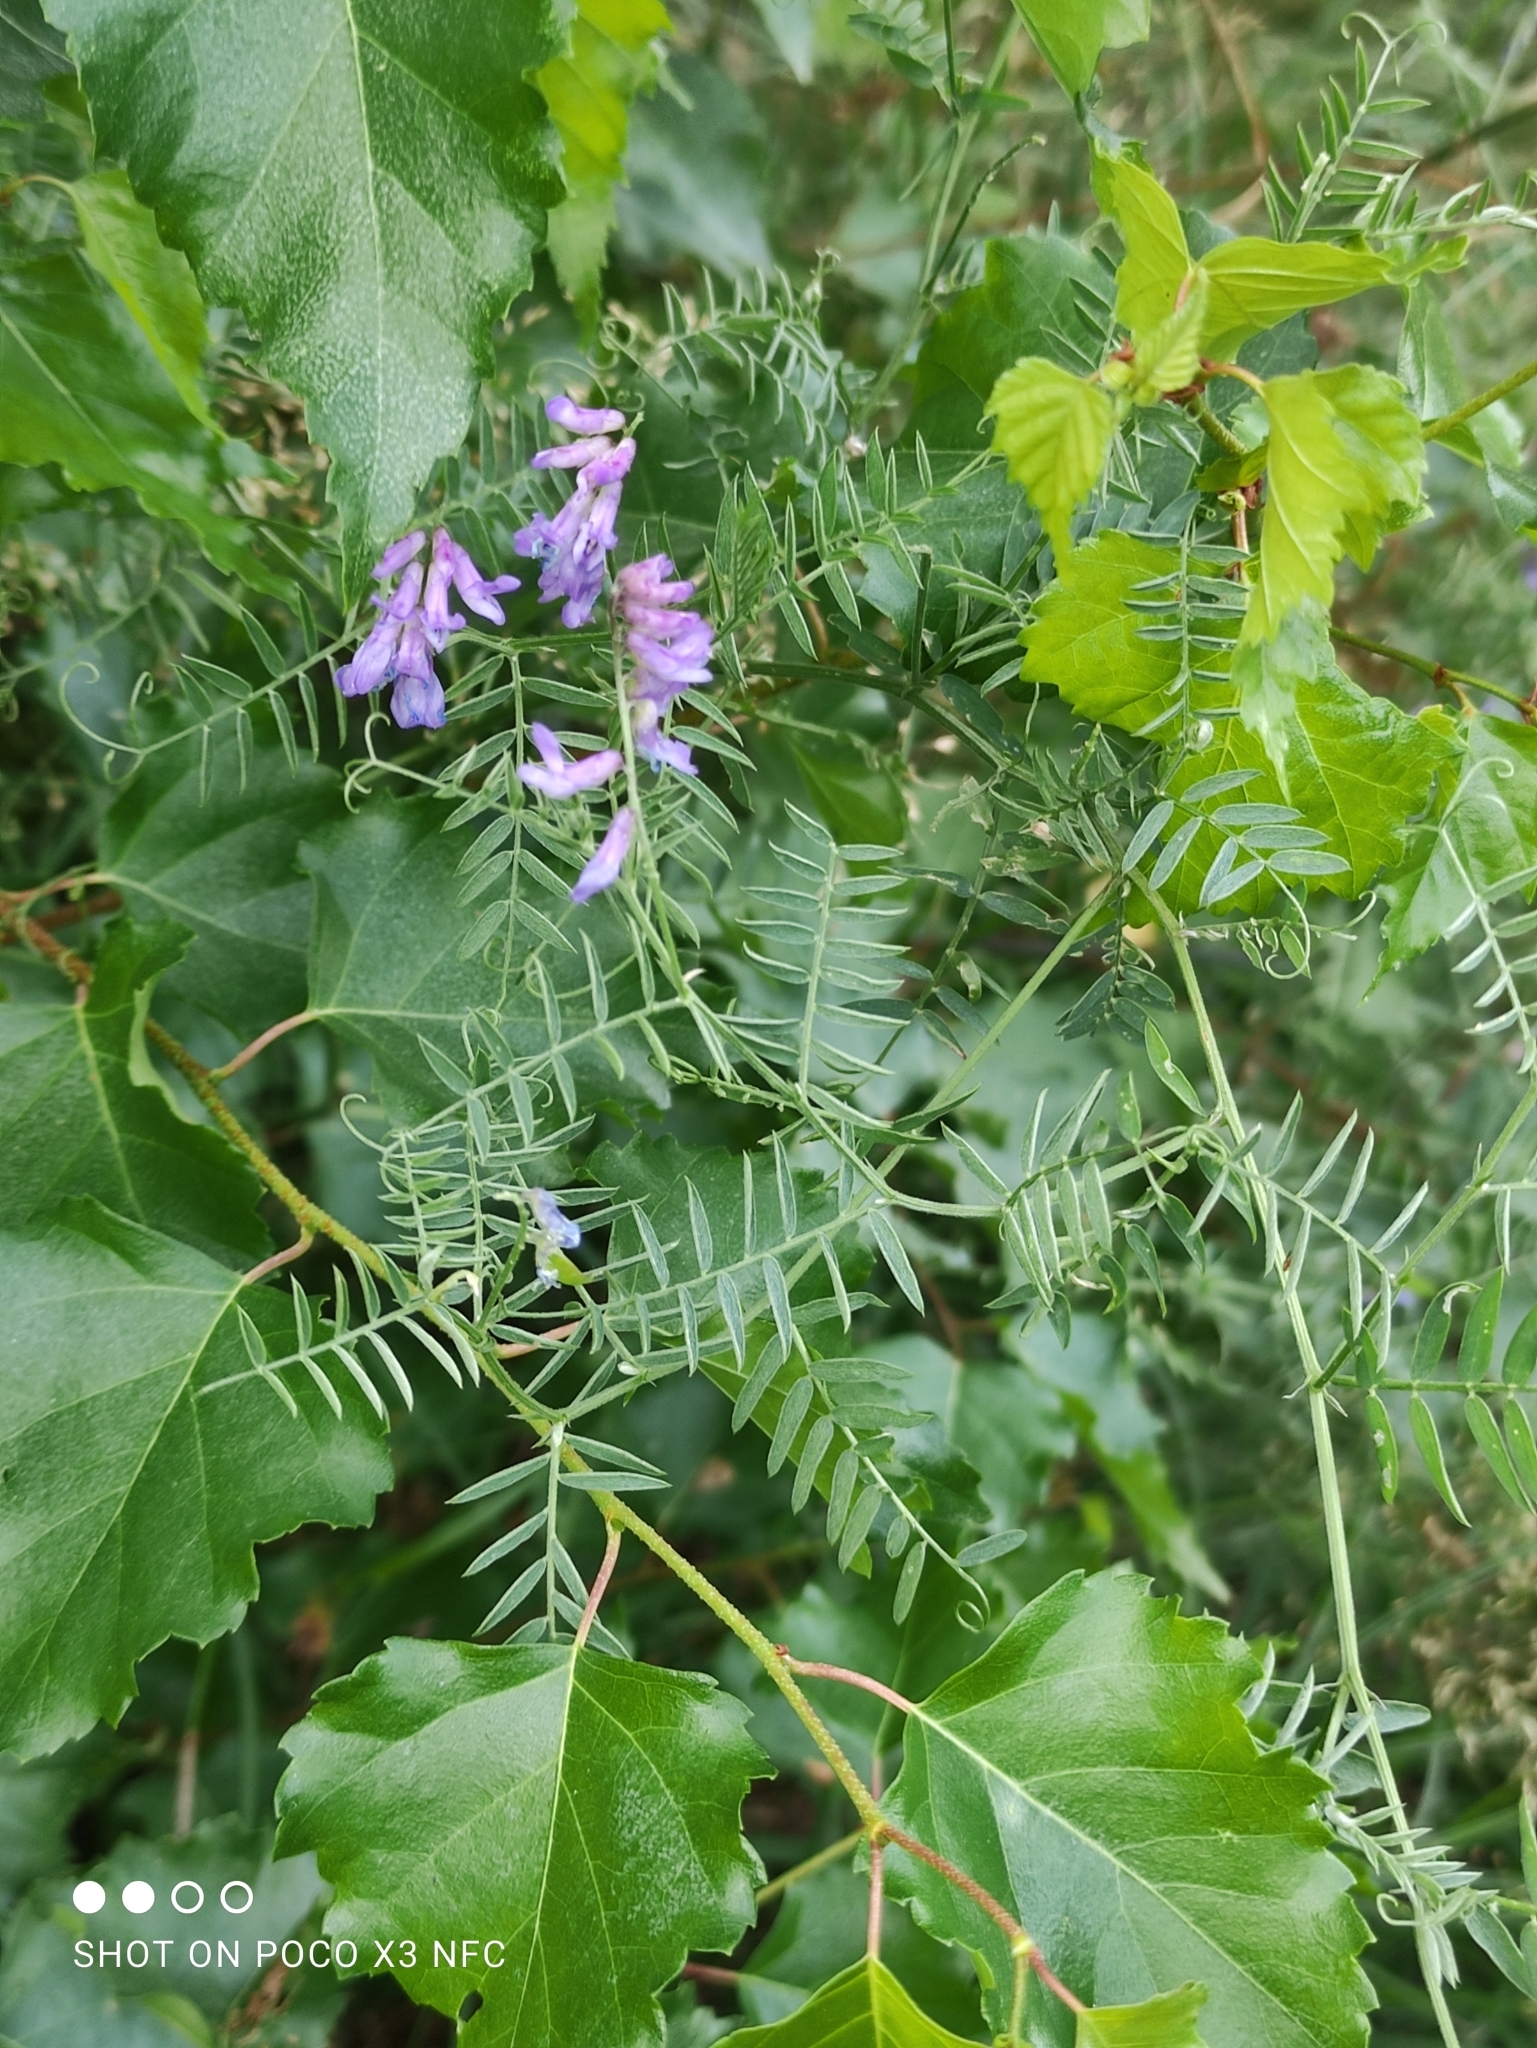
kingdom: Plantae
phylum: Tracheophyta
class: Magnoliopsida
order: Fabales
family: Fabaceae
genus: Vicia
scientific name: Vicia cracca
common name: Bird vetch
